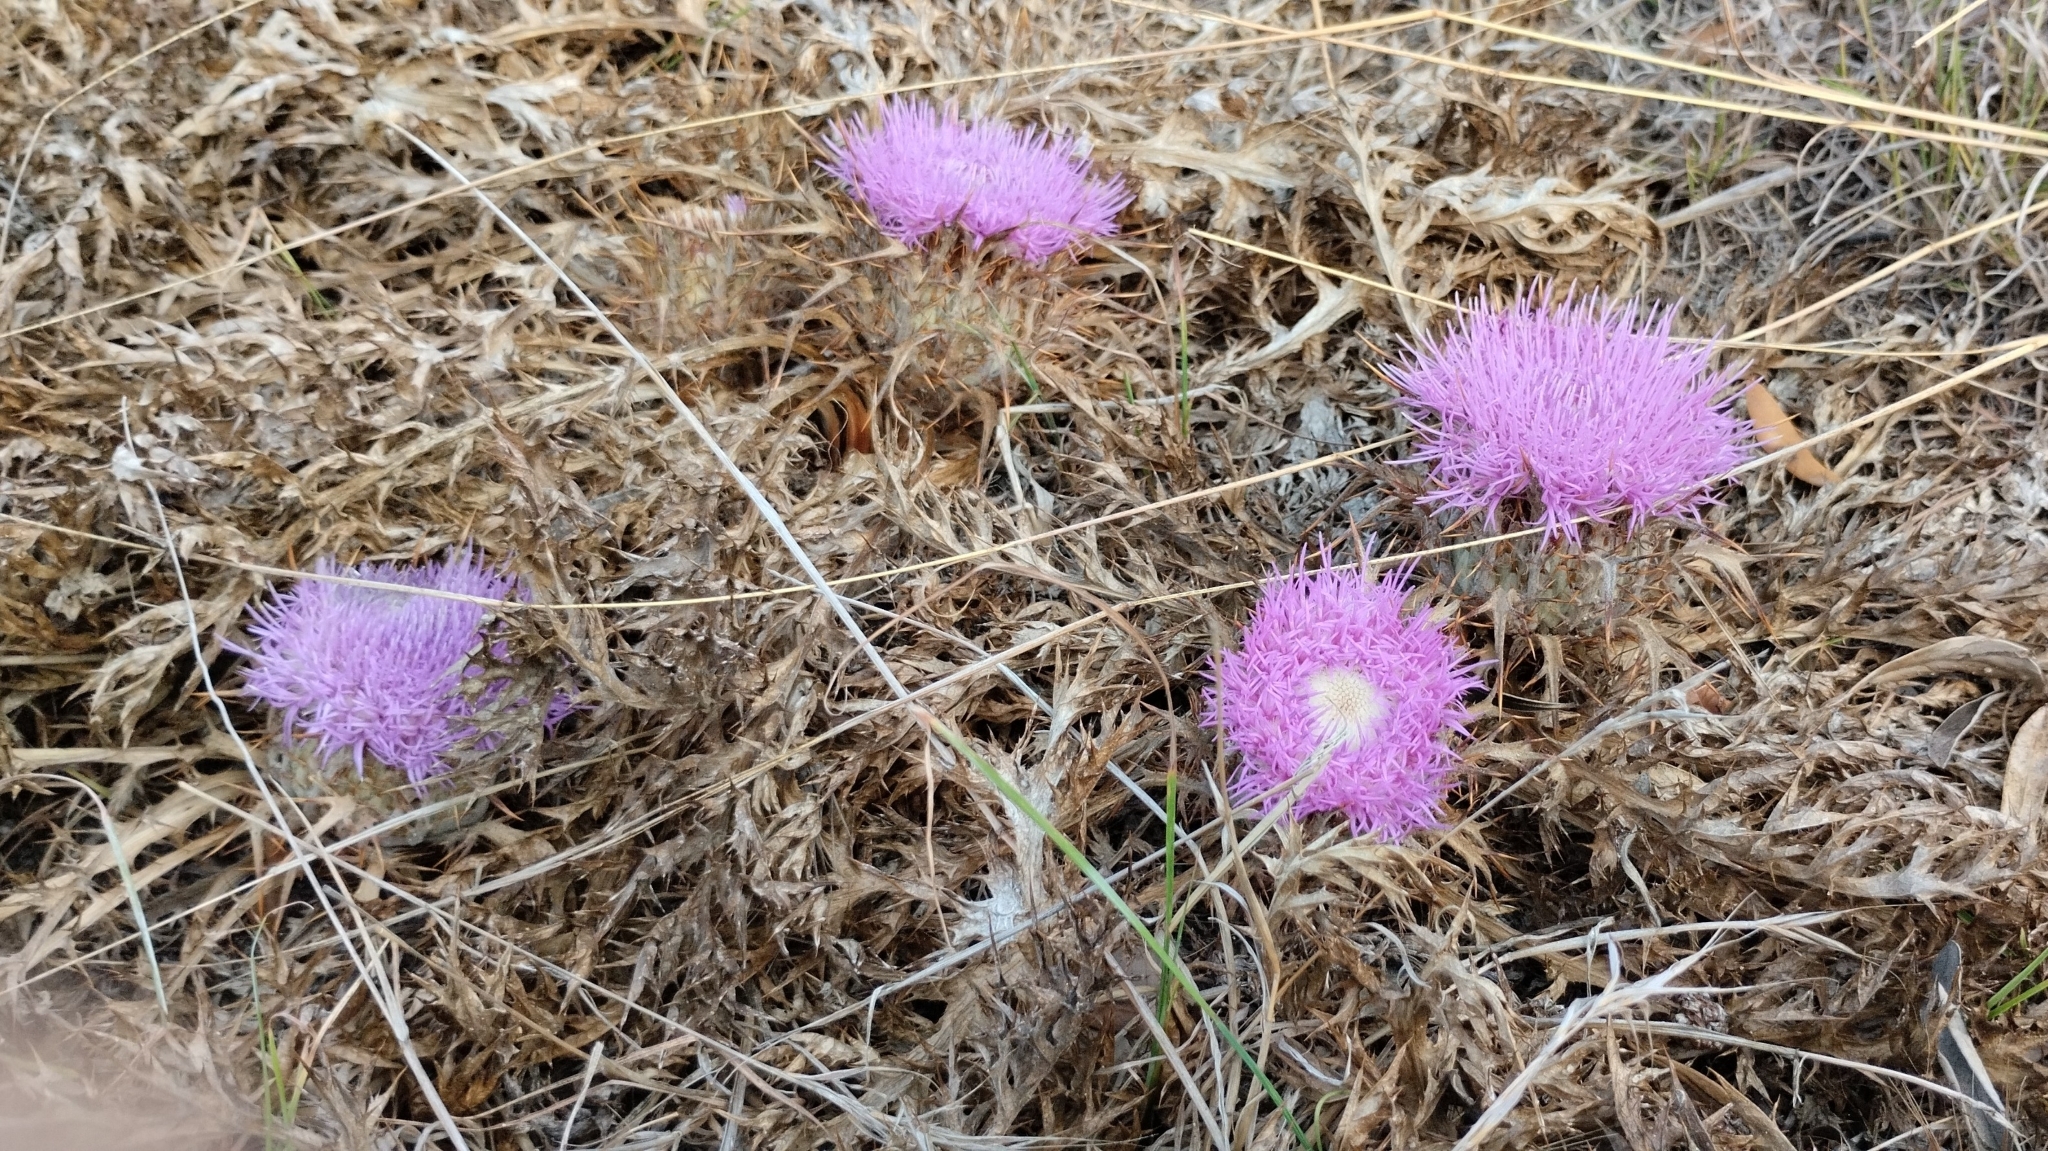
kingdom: Plantae
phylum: Tracheophyta
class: Magnoliopsida
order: Asterales
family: Asteraceae
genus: Chamaeleon
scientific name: Chamaeleon gummifer
